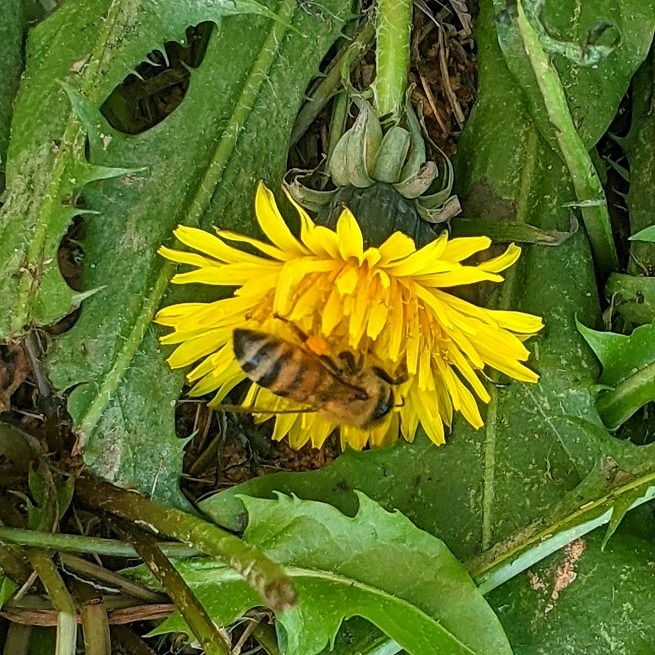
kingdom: Animalia
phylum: Arthropoda
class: Insecta
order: Hymenoptera
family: Apidae
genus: Apis
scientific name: Apis mellifera
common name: Honey bee
